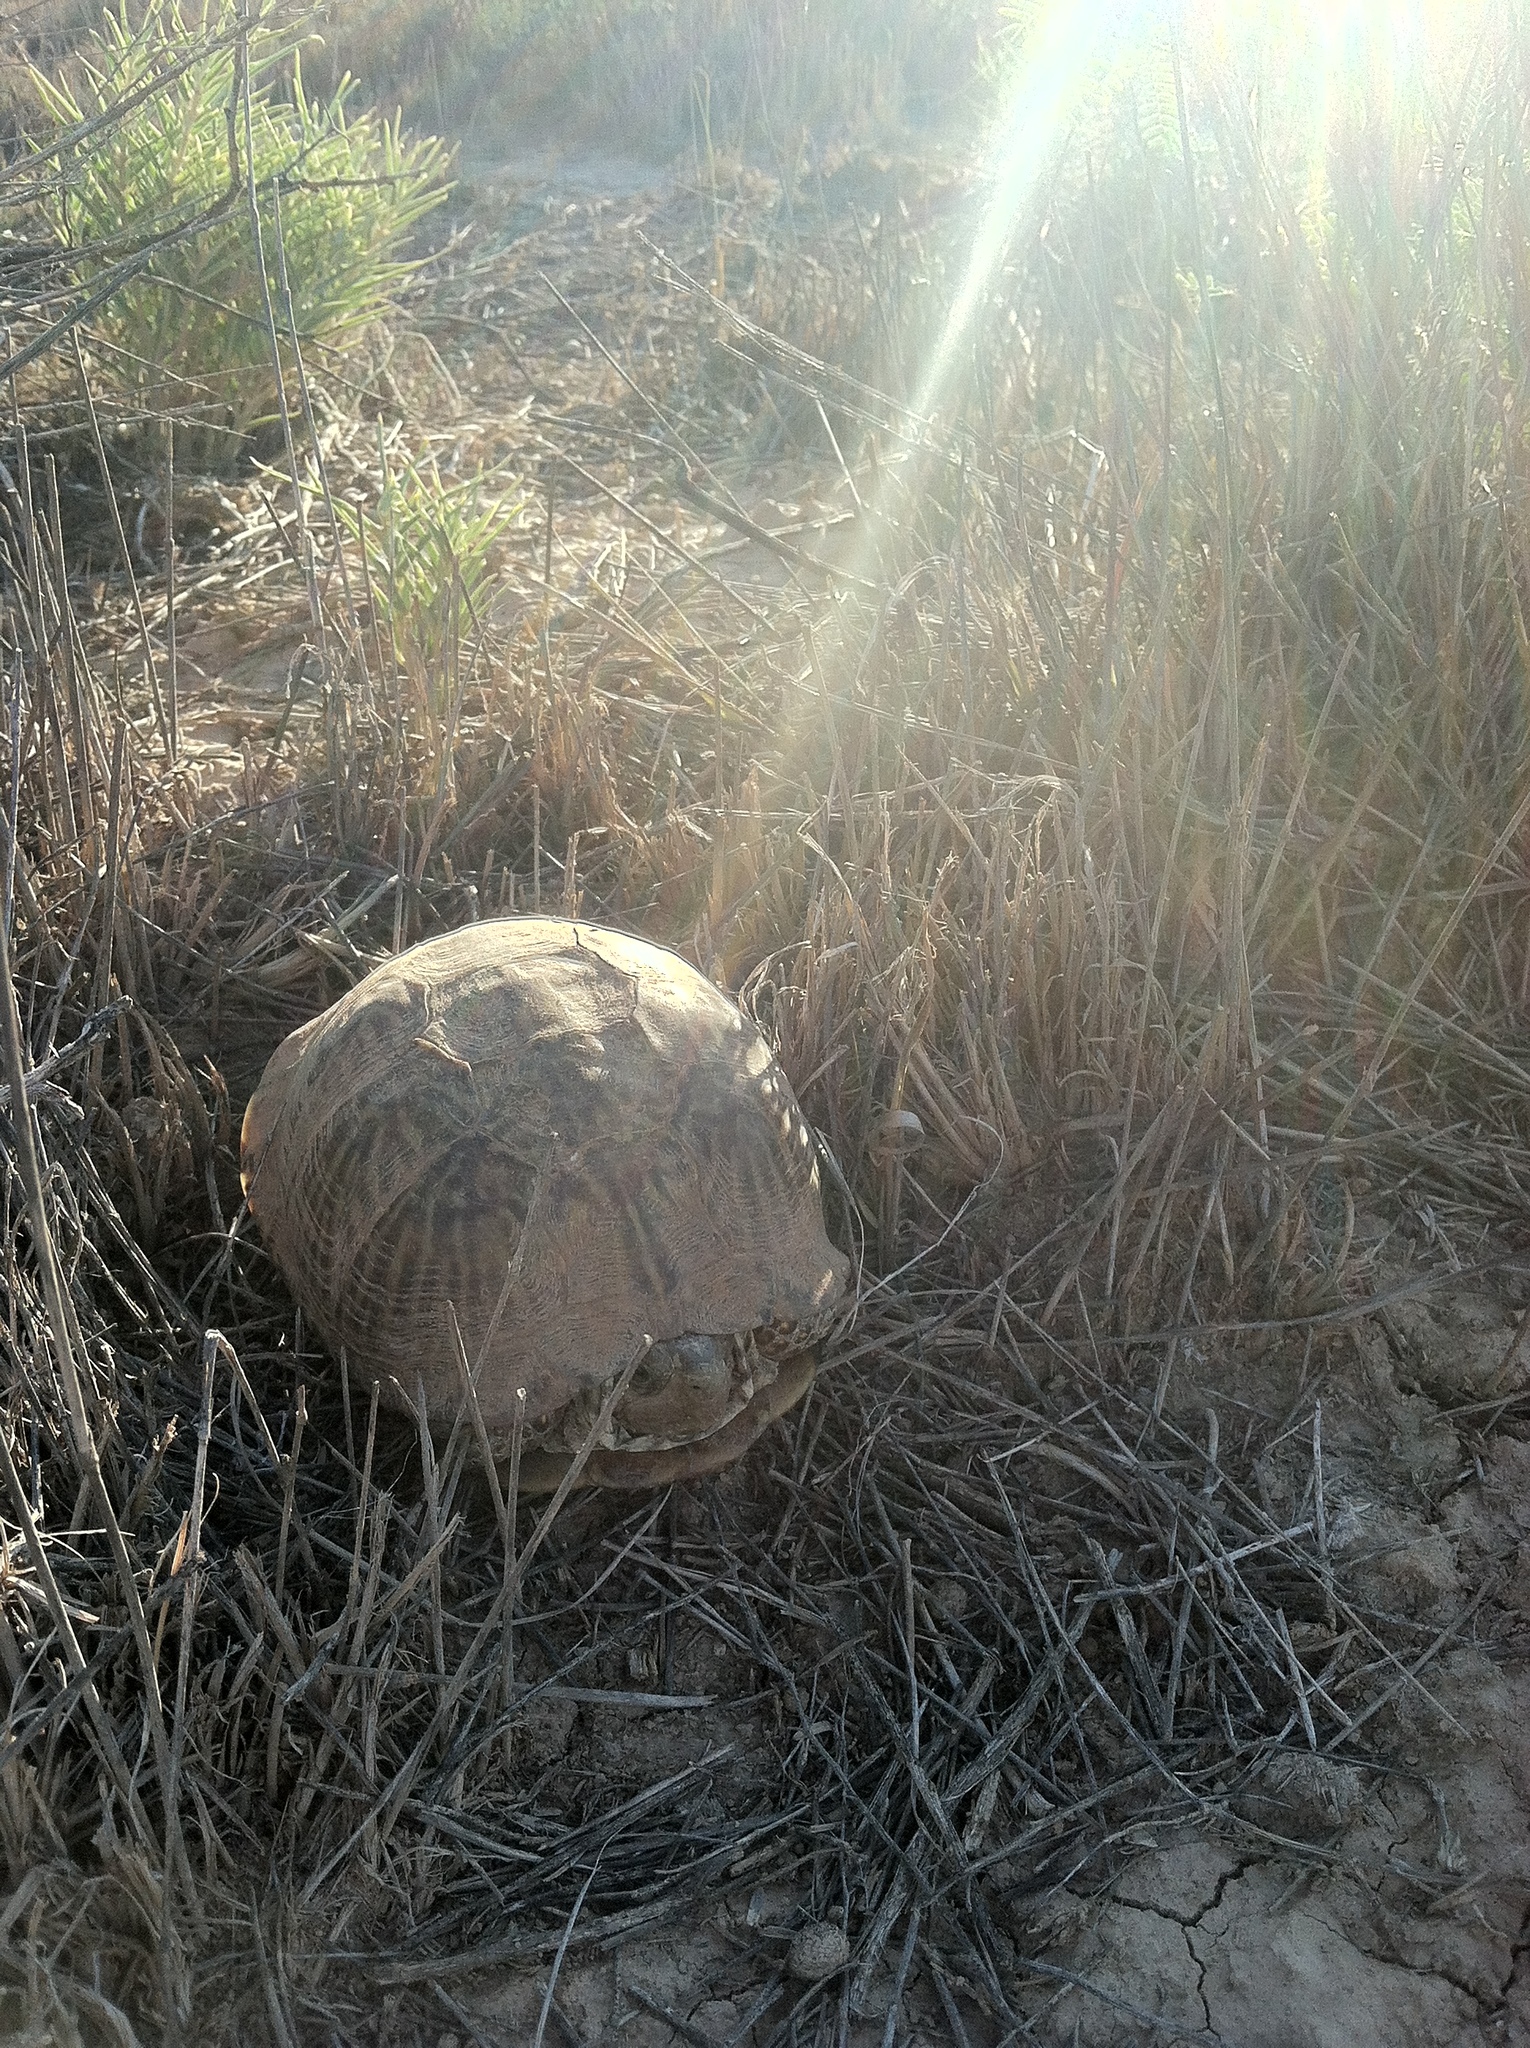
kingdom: Animalia
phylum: Chordata
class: Testudines
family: Emydidae
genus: Terrapene
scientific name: Terrapene ornata
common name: Western box turtle
